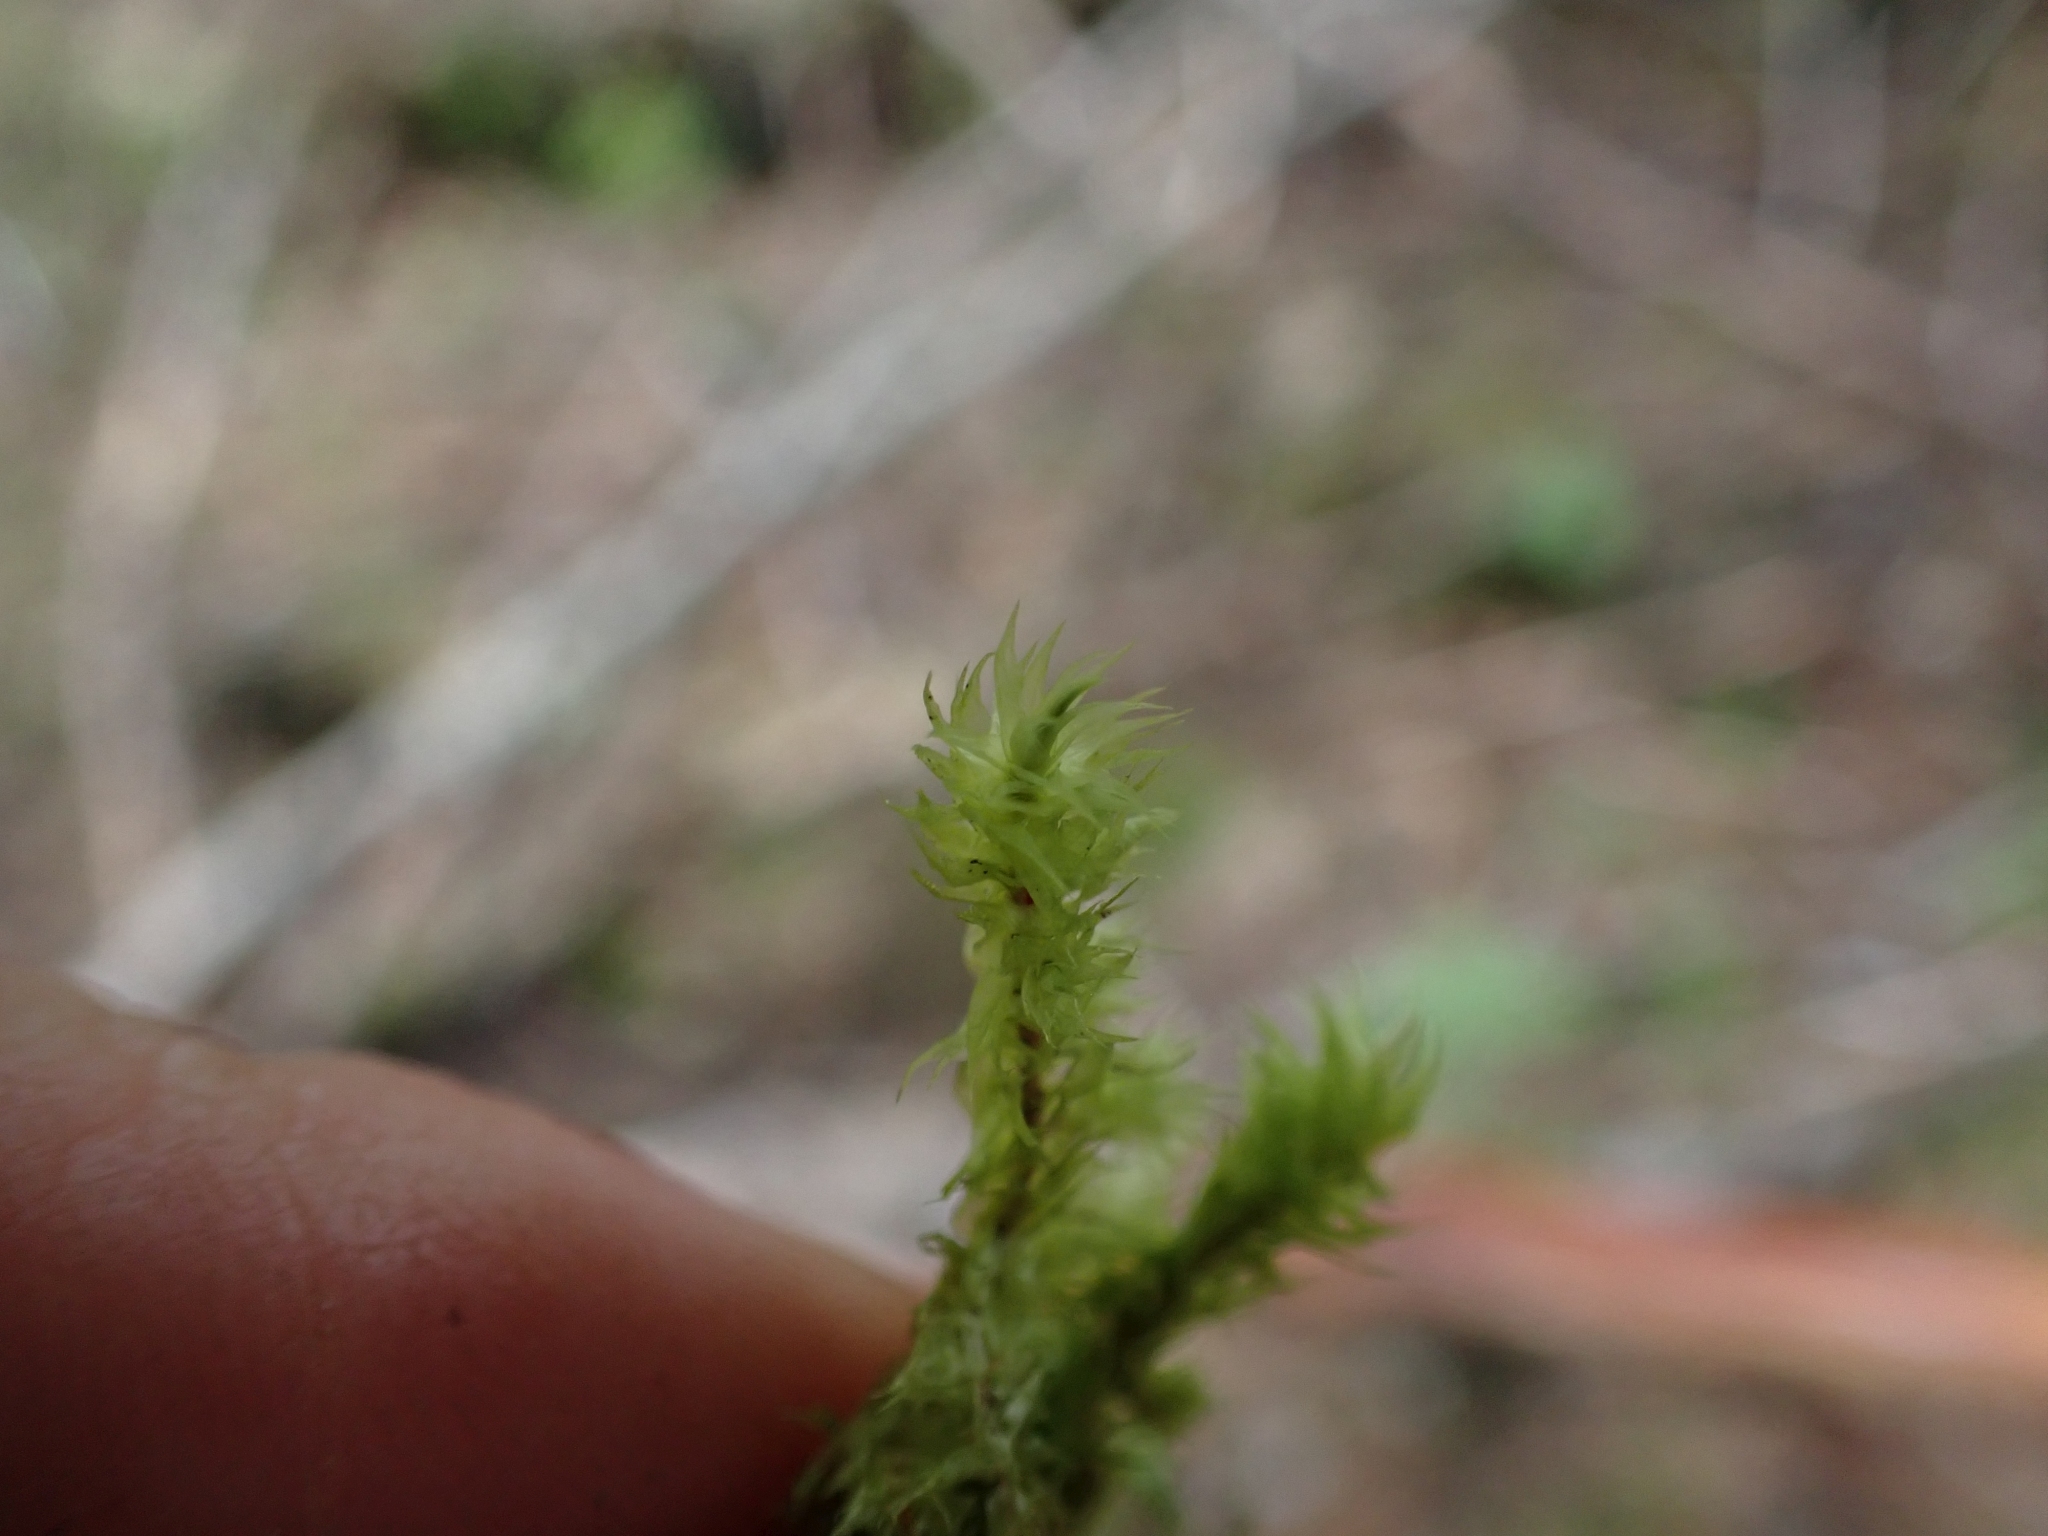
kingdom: Plantae
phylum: Bryophyta
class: Bryopsida
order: Hypnales
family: Hylocomiaceae
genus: Hylocomiadelphus
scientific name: Hylocomiadelphus triquetrus
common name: Rough goose neck moss
